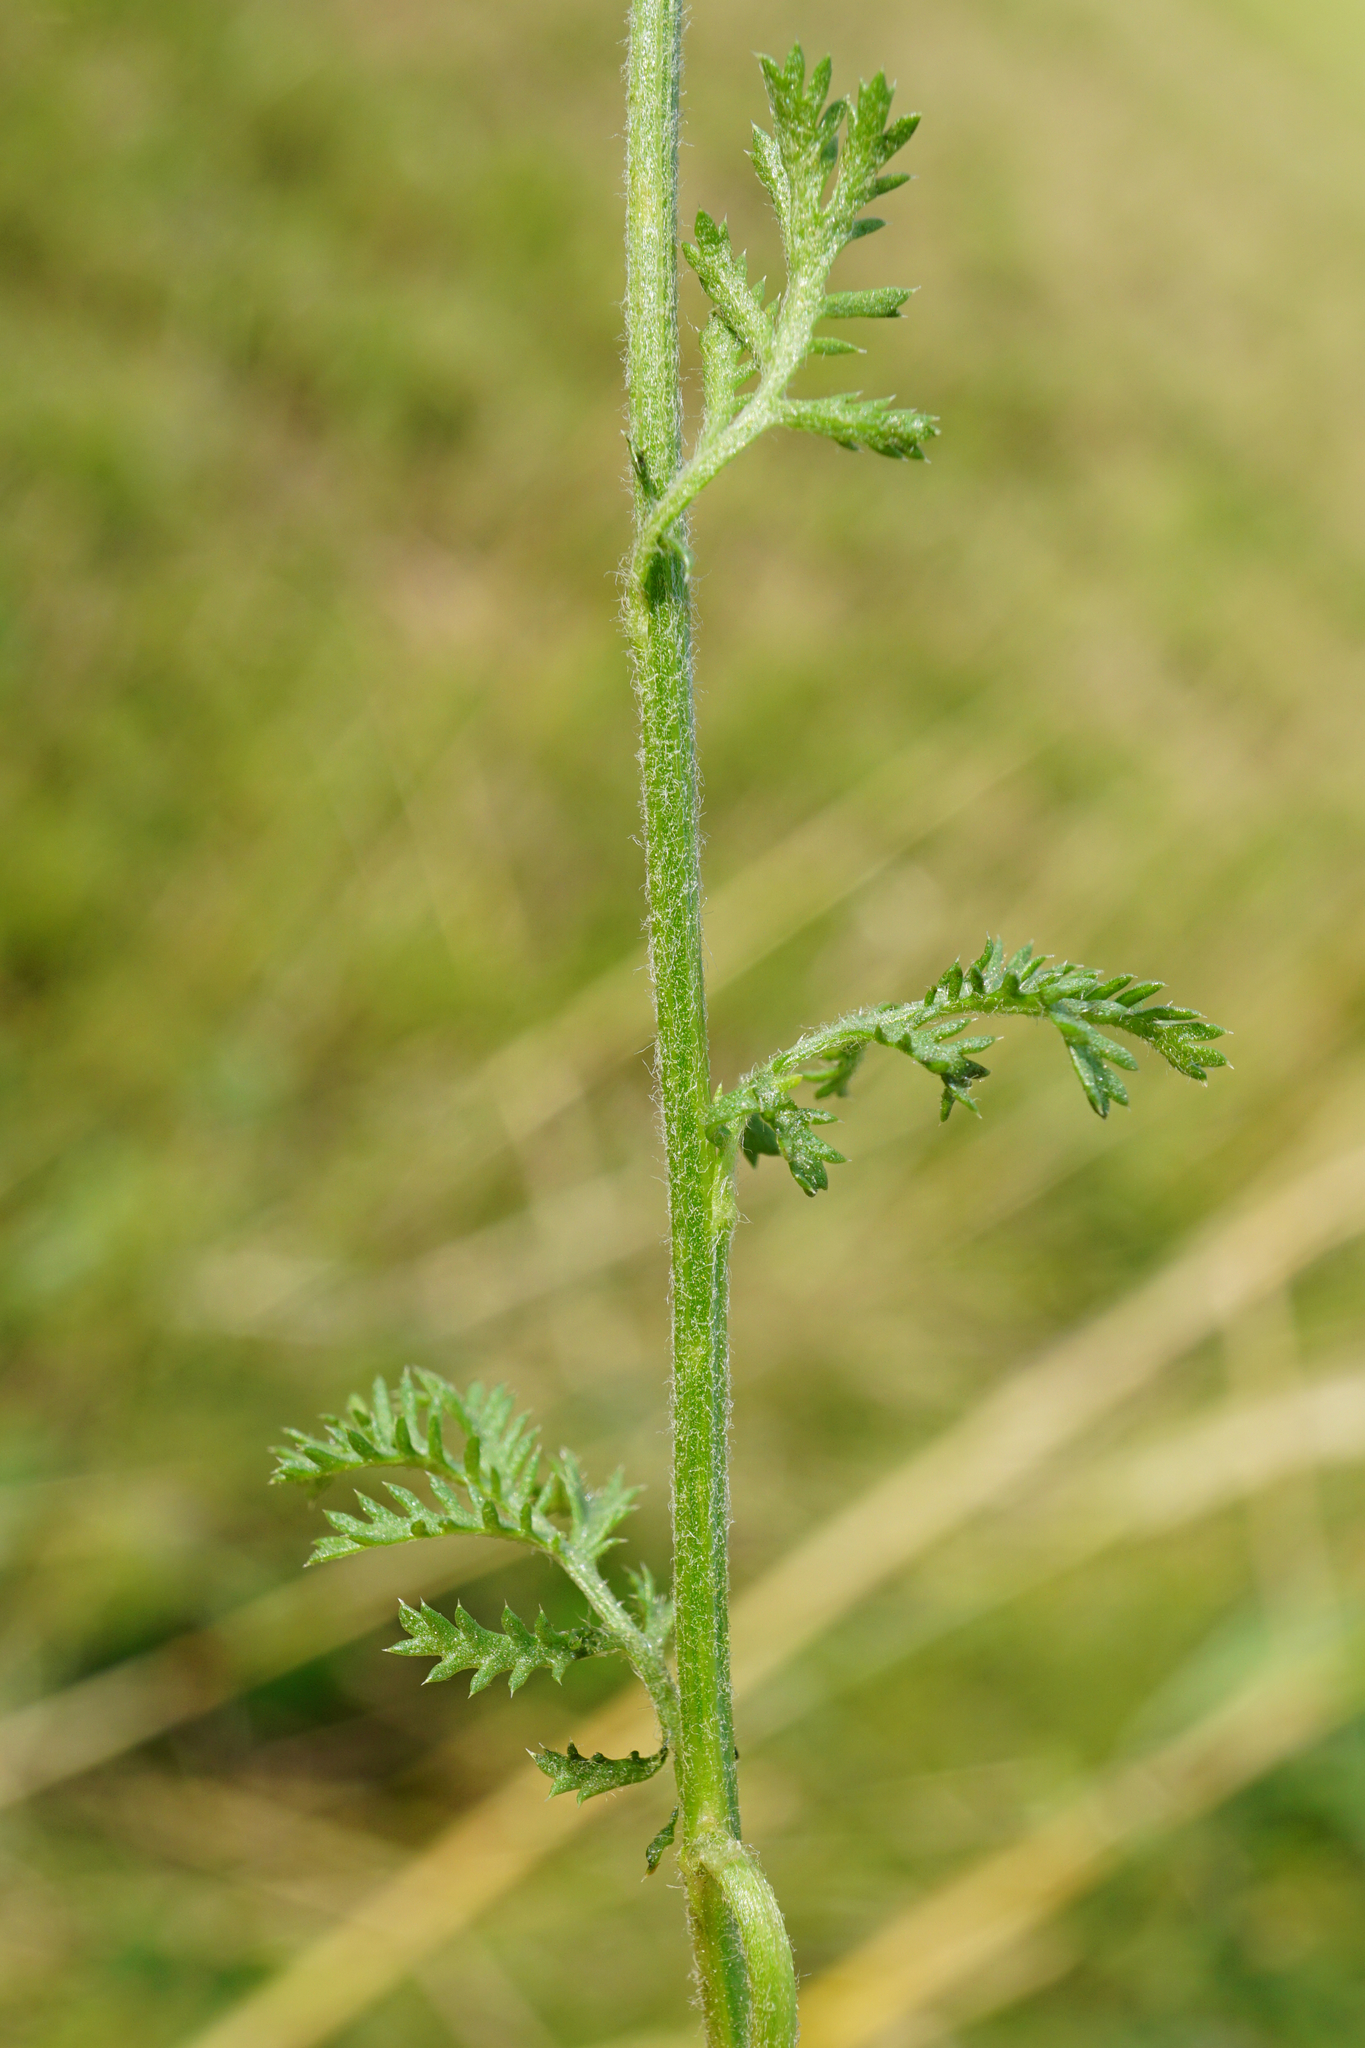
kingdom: Plantae
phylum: Tracheophyta
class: Magnoliopsida
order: Asterales
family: Asteraceae
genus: Cota
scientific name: Cota austriaca
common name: Austrian chamomile
